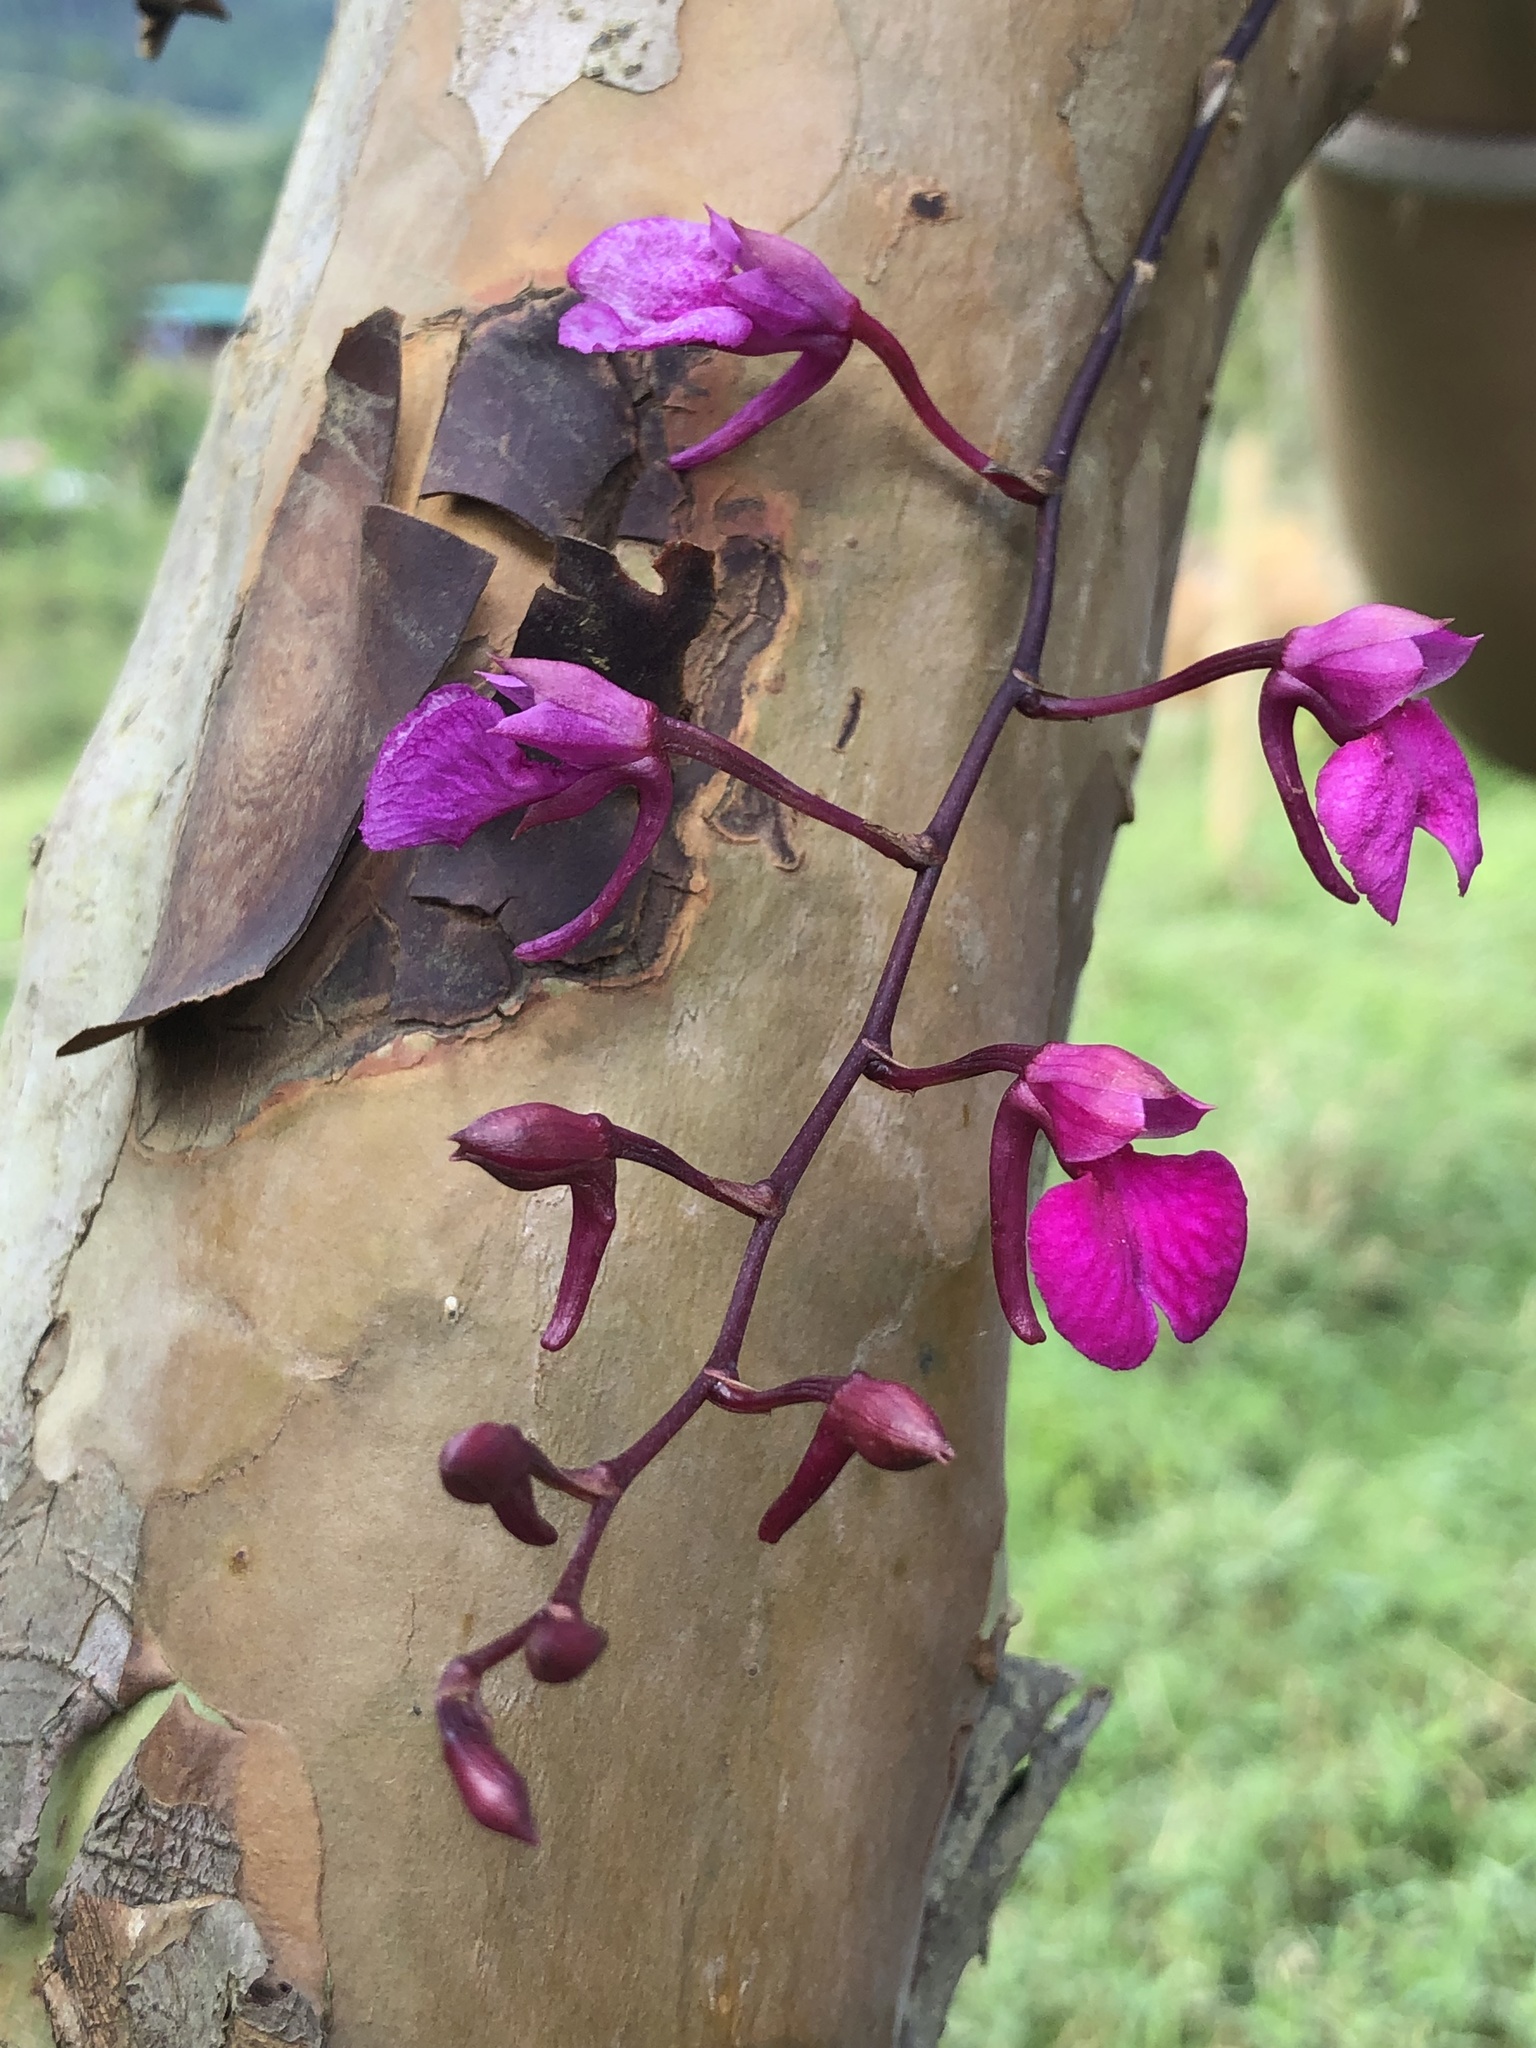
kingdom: Plantae
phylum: Tracheophyta
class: Liliopsida
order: Asparagales
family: Orchidaceae
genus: Comparettia
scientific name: Comparettia falcata
